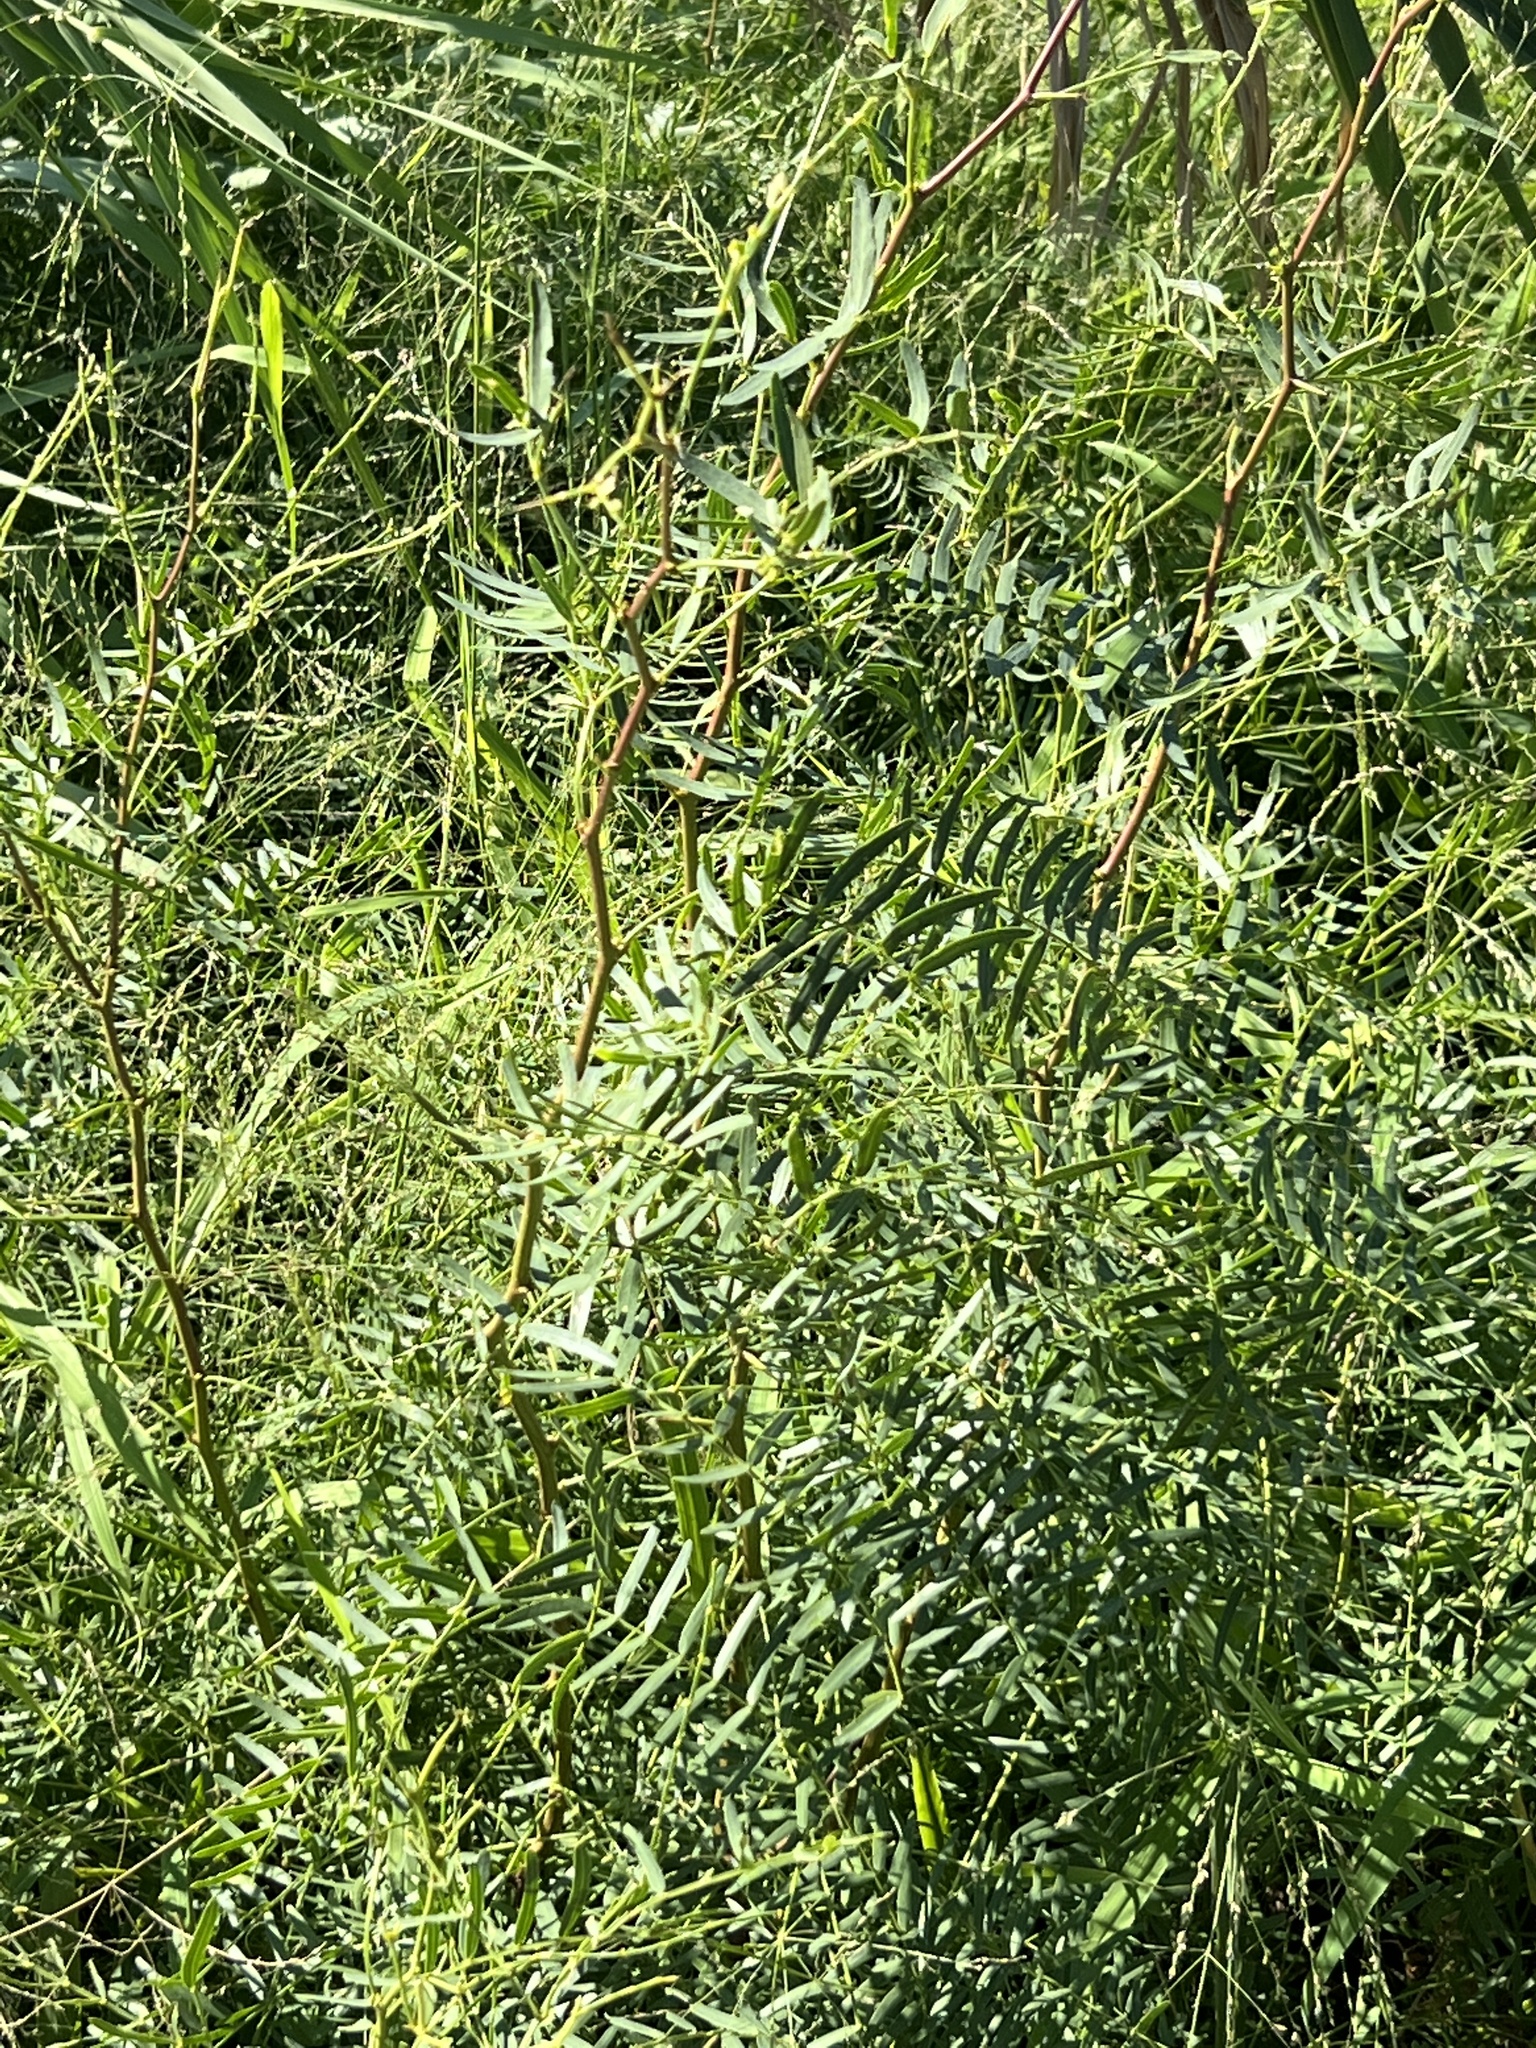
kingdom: Plantae
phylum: Tracheophyta
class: Magnoliopsida
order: Fabales
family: Fabaceae
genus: Prosopis
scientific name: Prosopis glandulosa
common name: Honey mesquite
